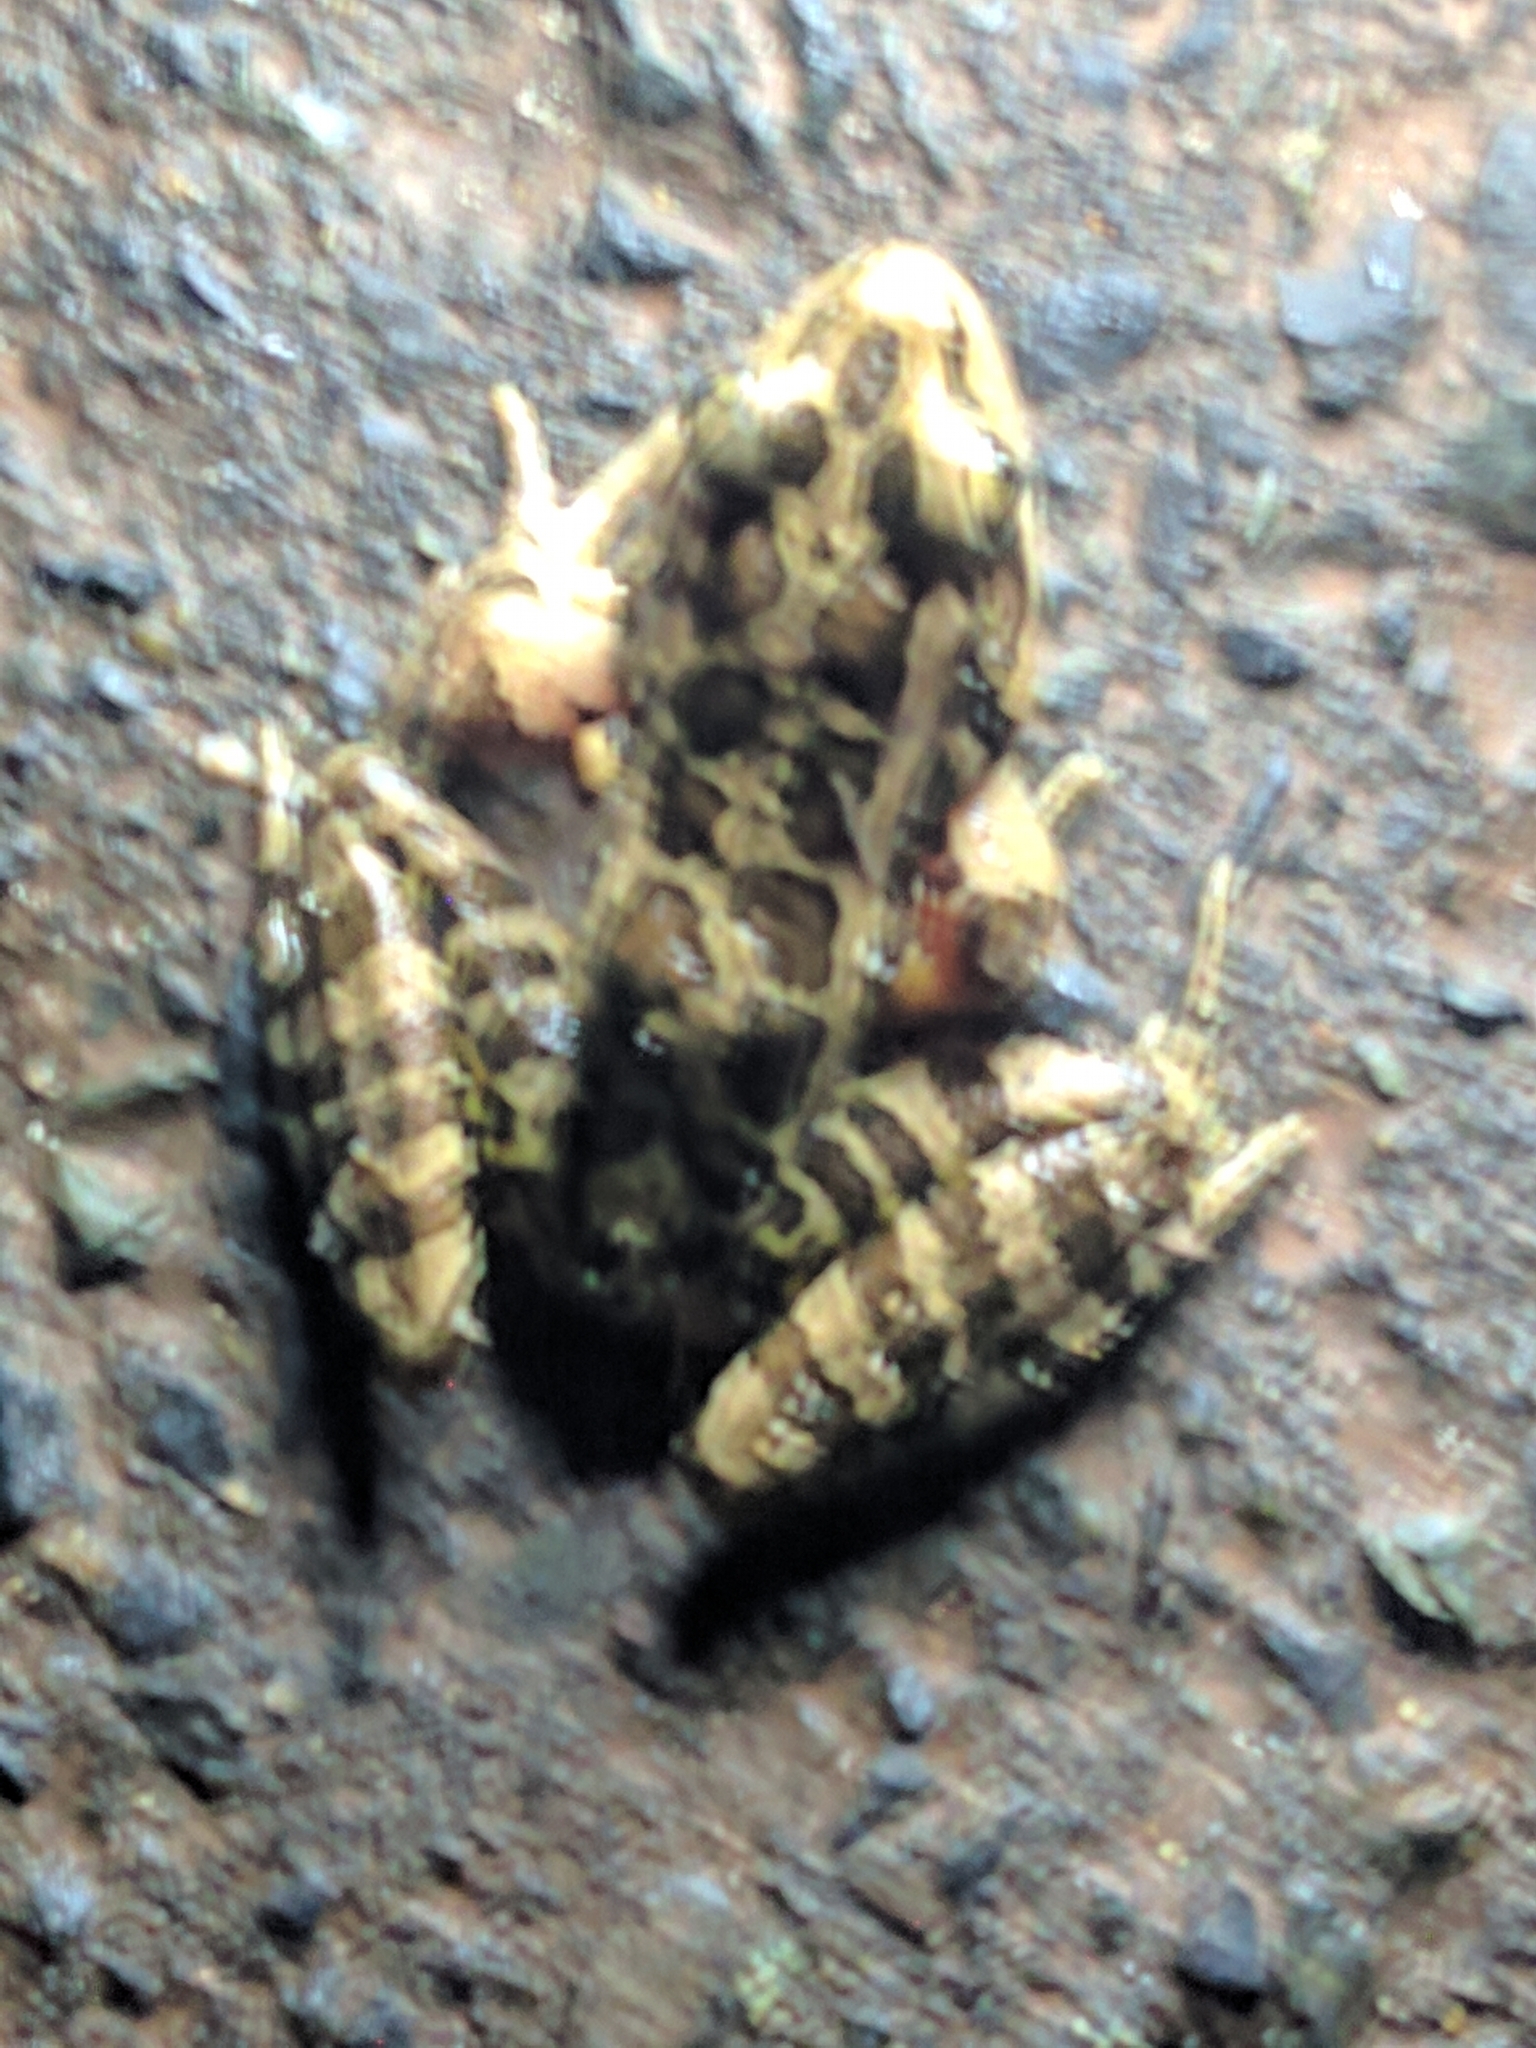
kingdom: Animalia
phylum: Chordata
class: Amphibia
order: Anura
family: Ranidae
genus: Lithobates
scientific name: Lithobates palustris
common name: Pickerel frog
